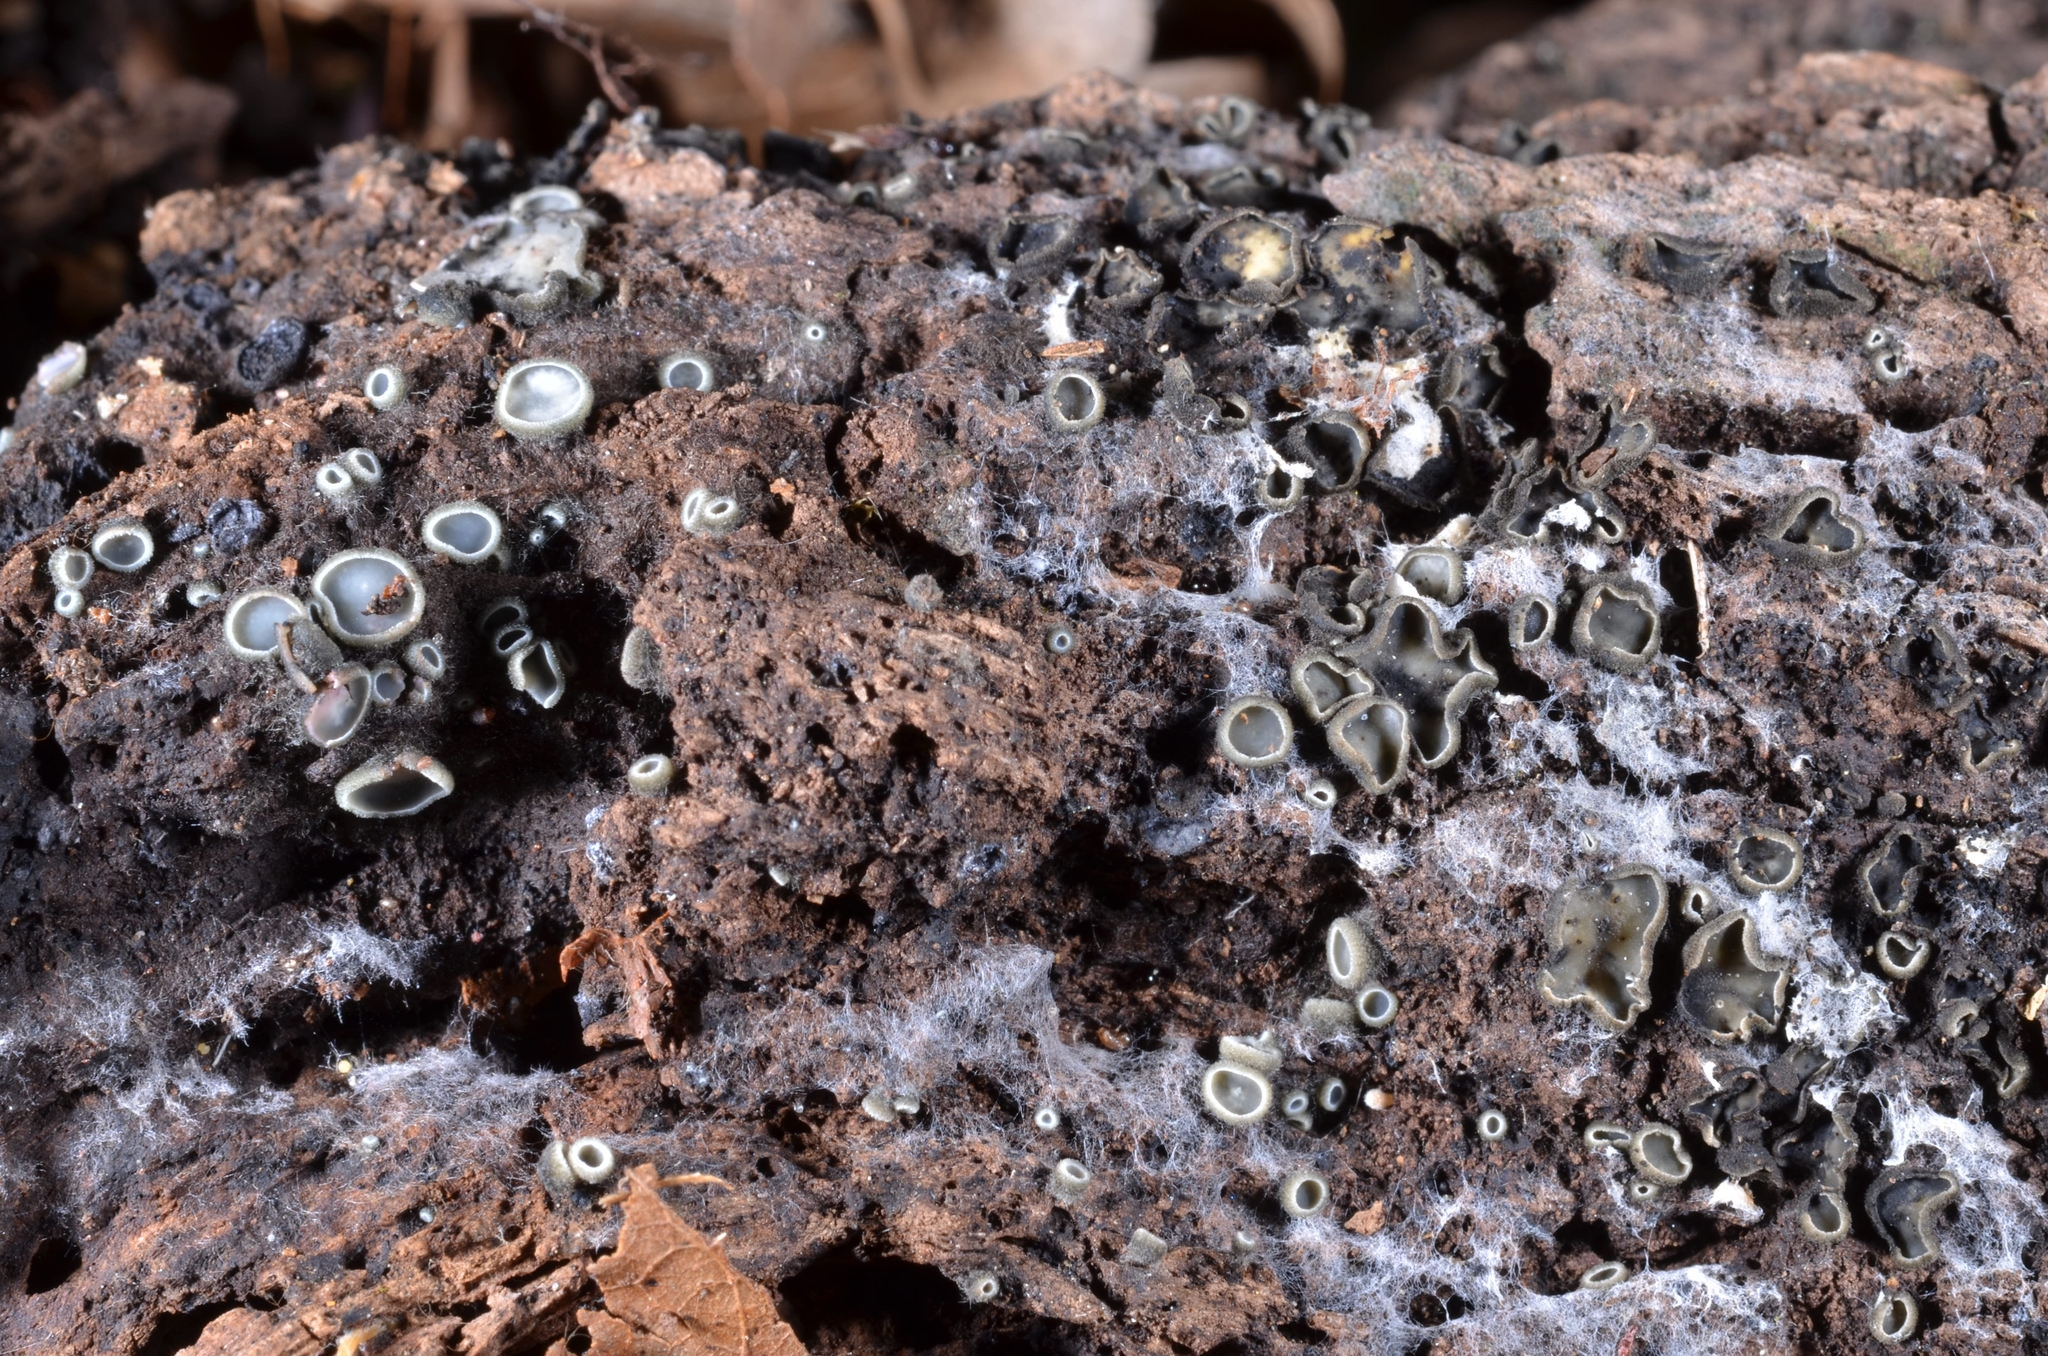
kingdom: Fungi
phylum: Ascomycota
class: Leotiomycetes
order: Helotiales
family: Mollisiaceae
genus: Mollisia
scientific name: Mollisia olivascens
